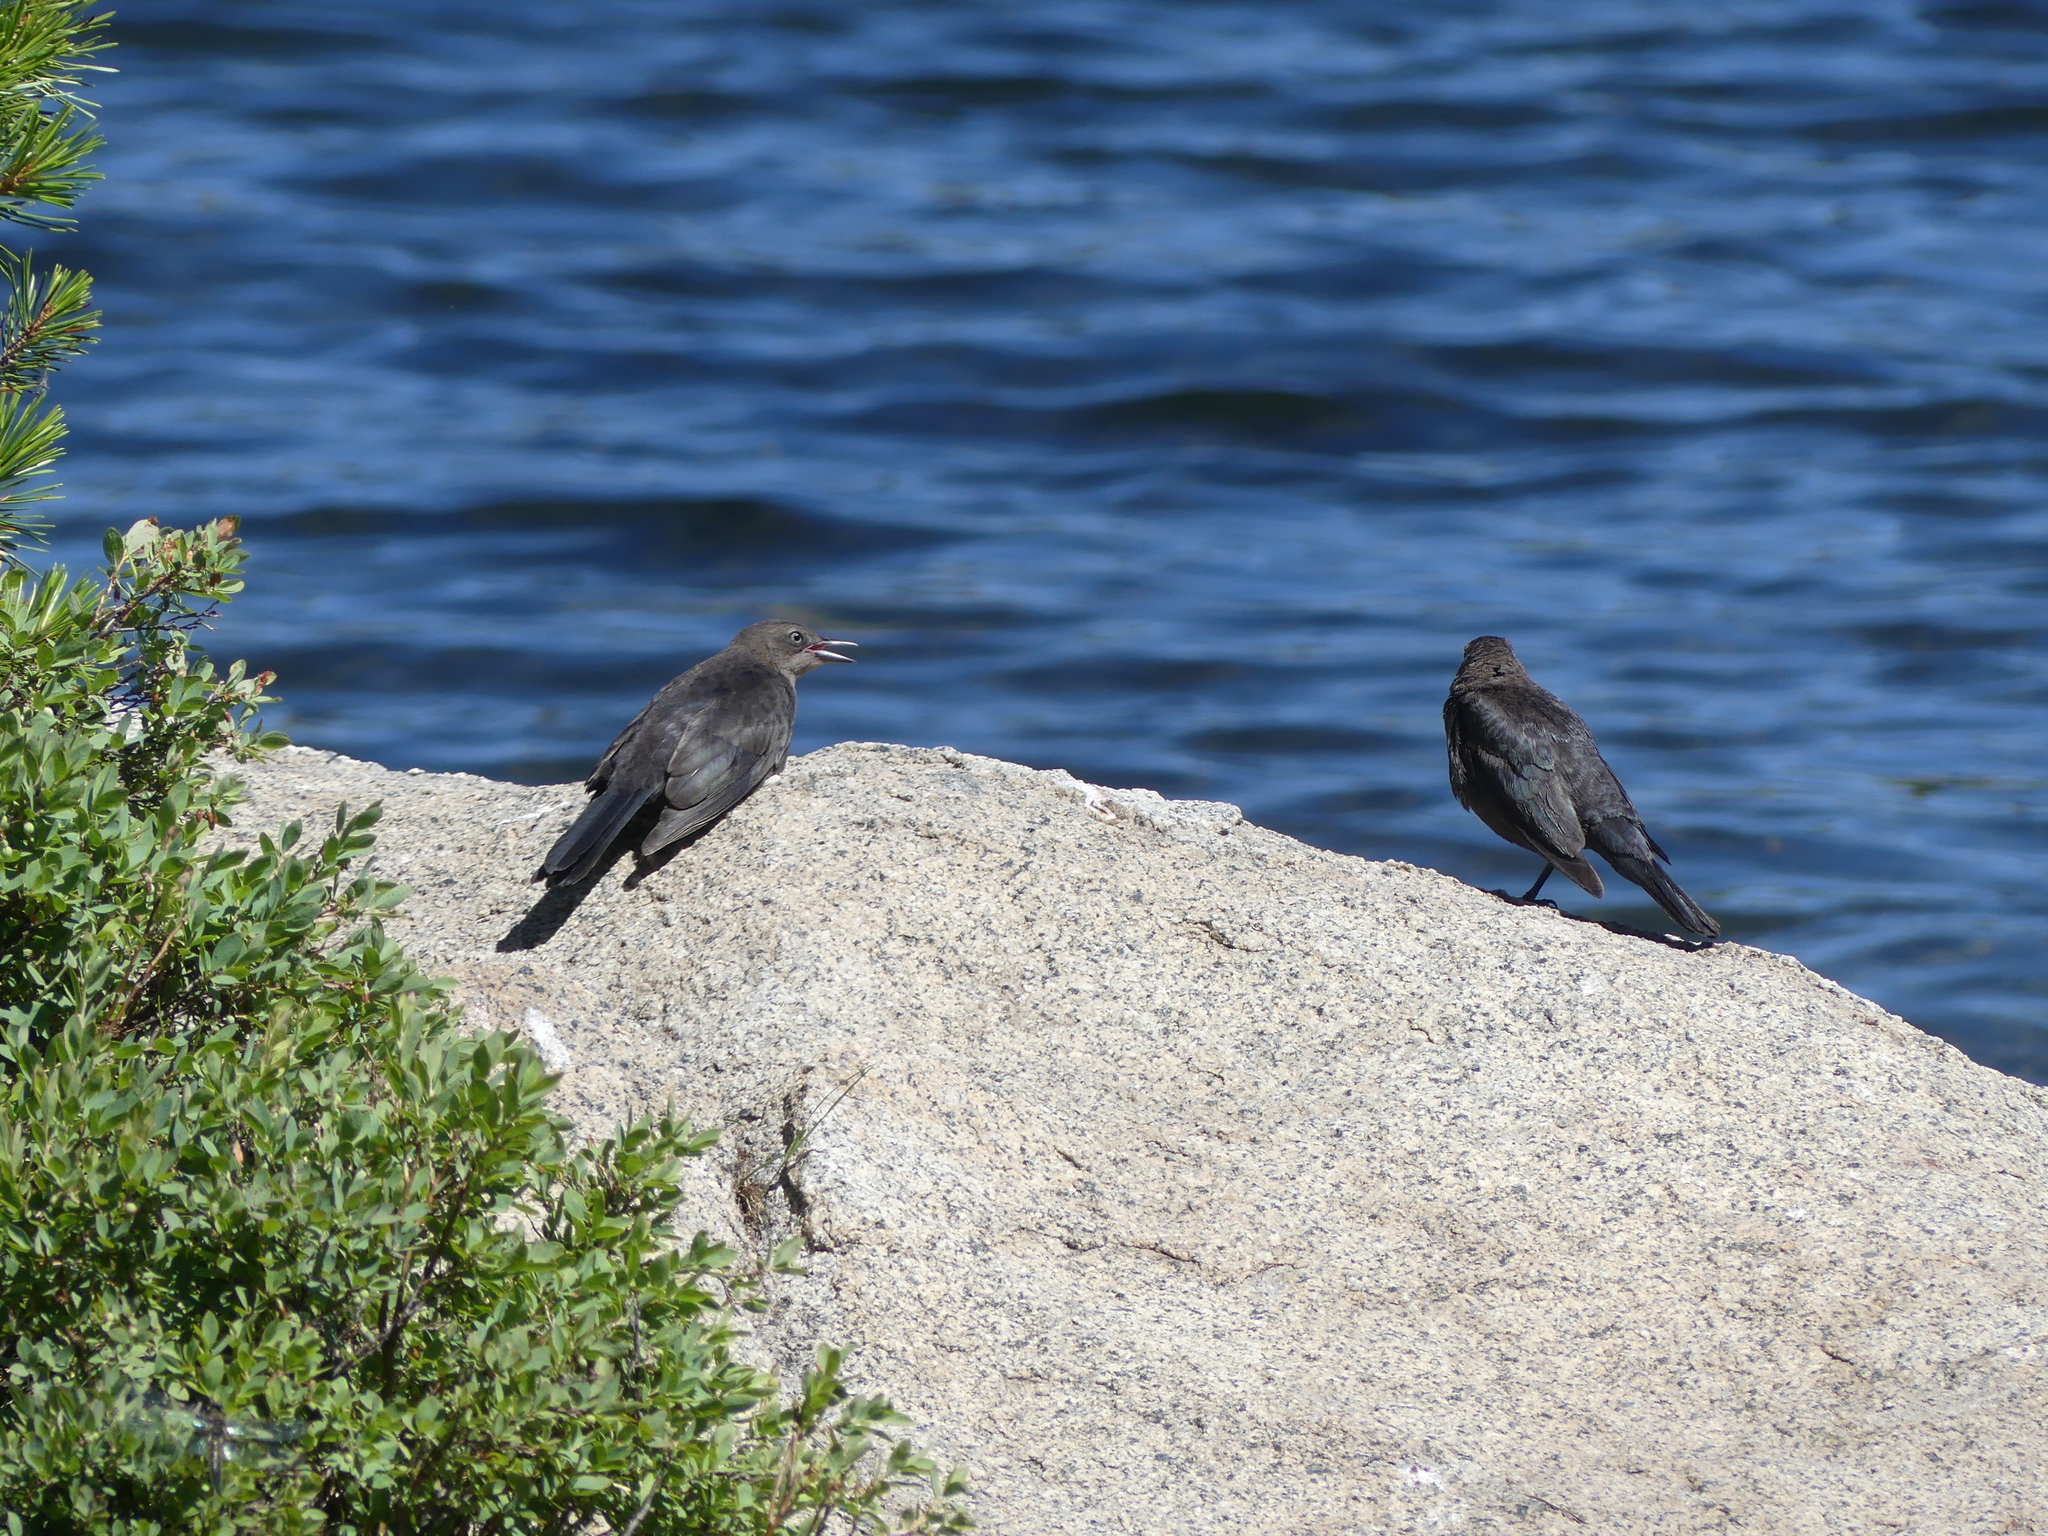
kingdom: Animalia
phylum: Chordata
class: Aves
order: Passeriformes
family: Icteridae
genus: Euphagus
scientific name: Euphagus cyanocephalus
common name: Brewer's blackbird
